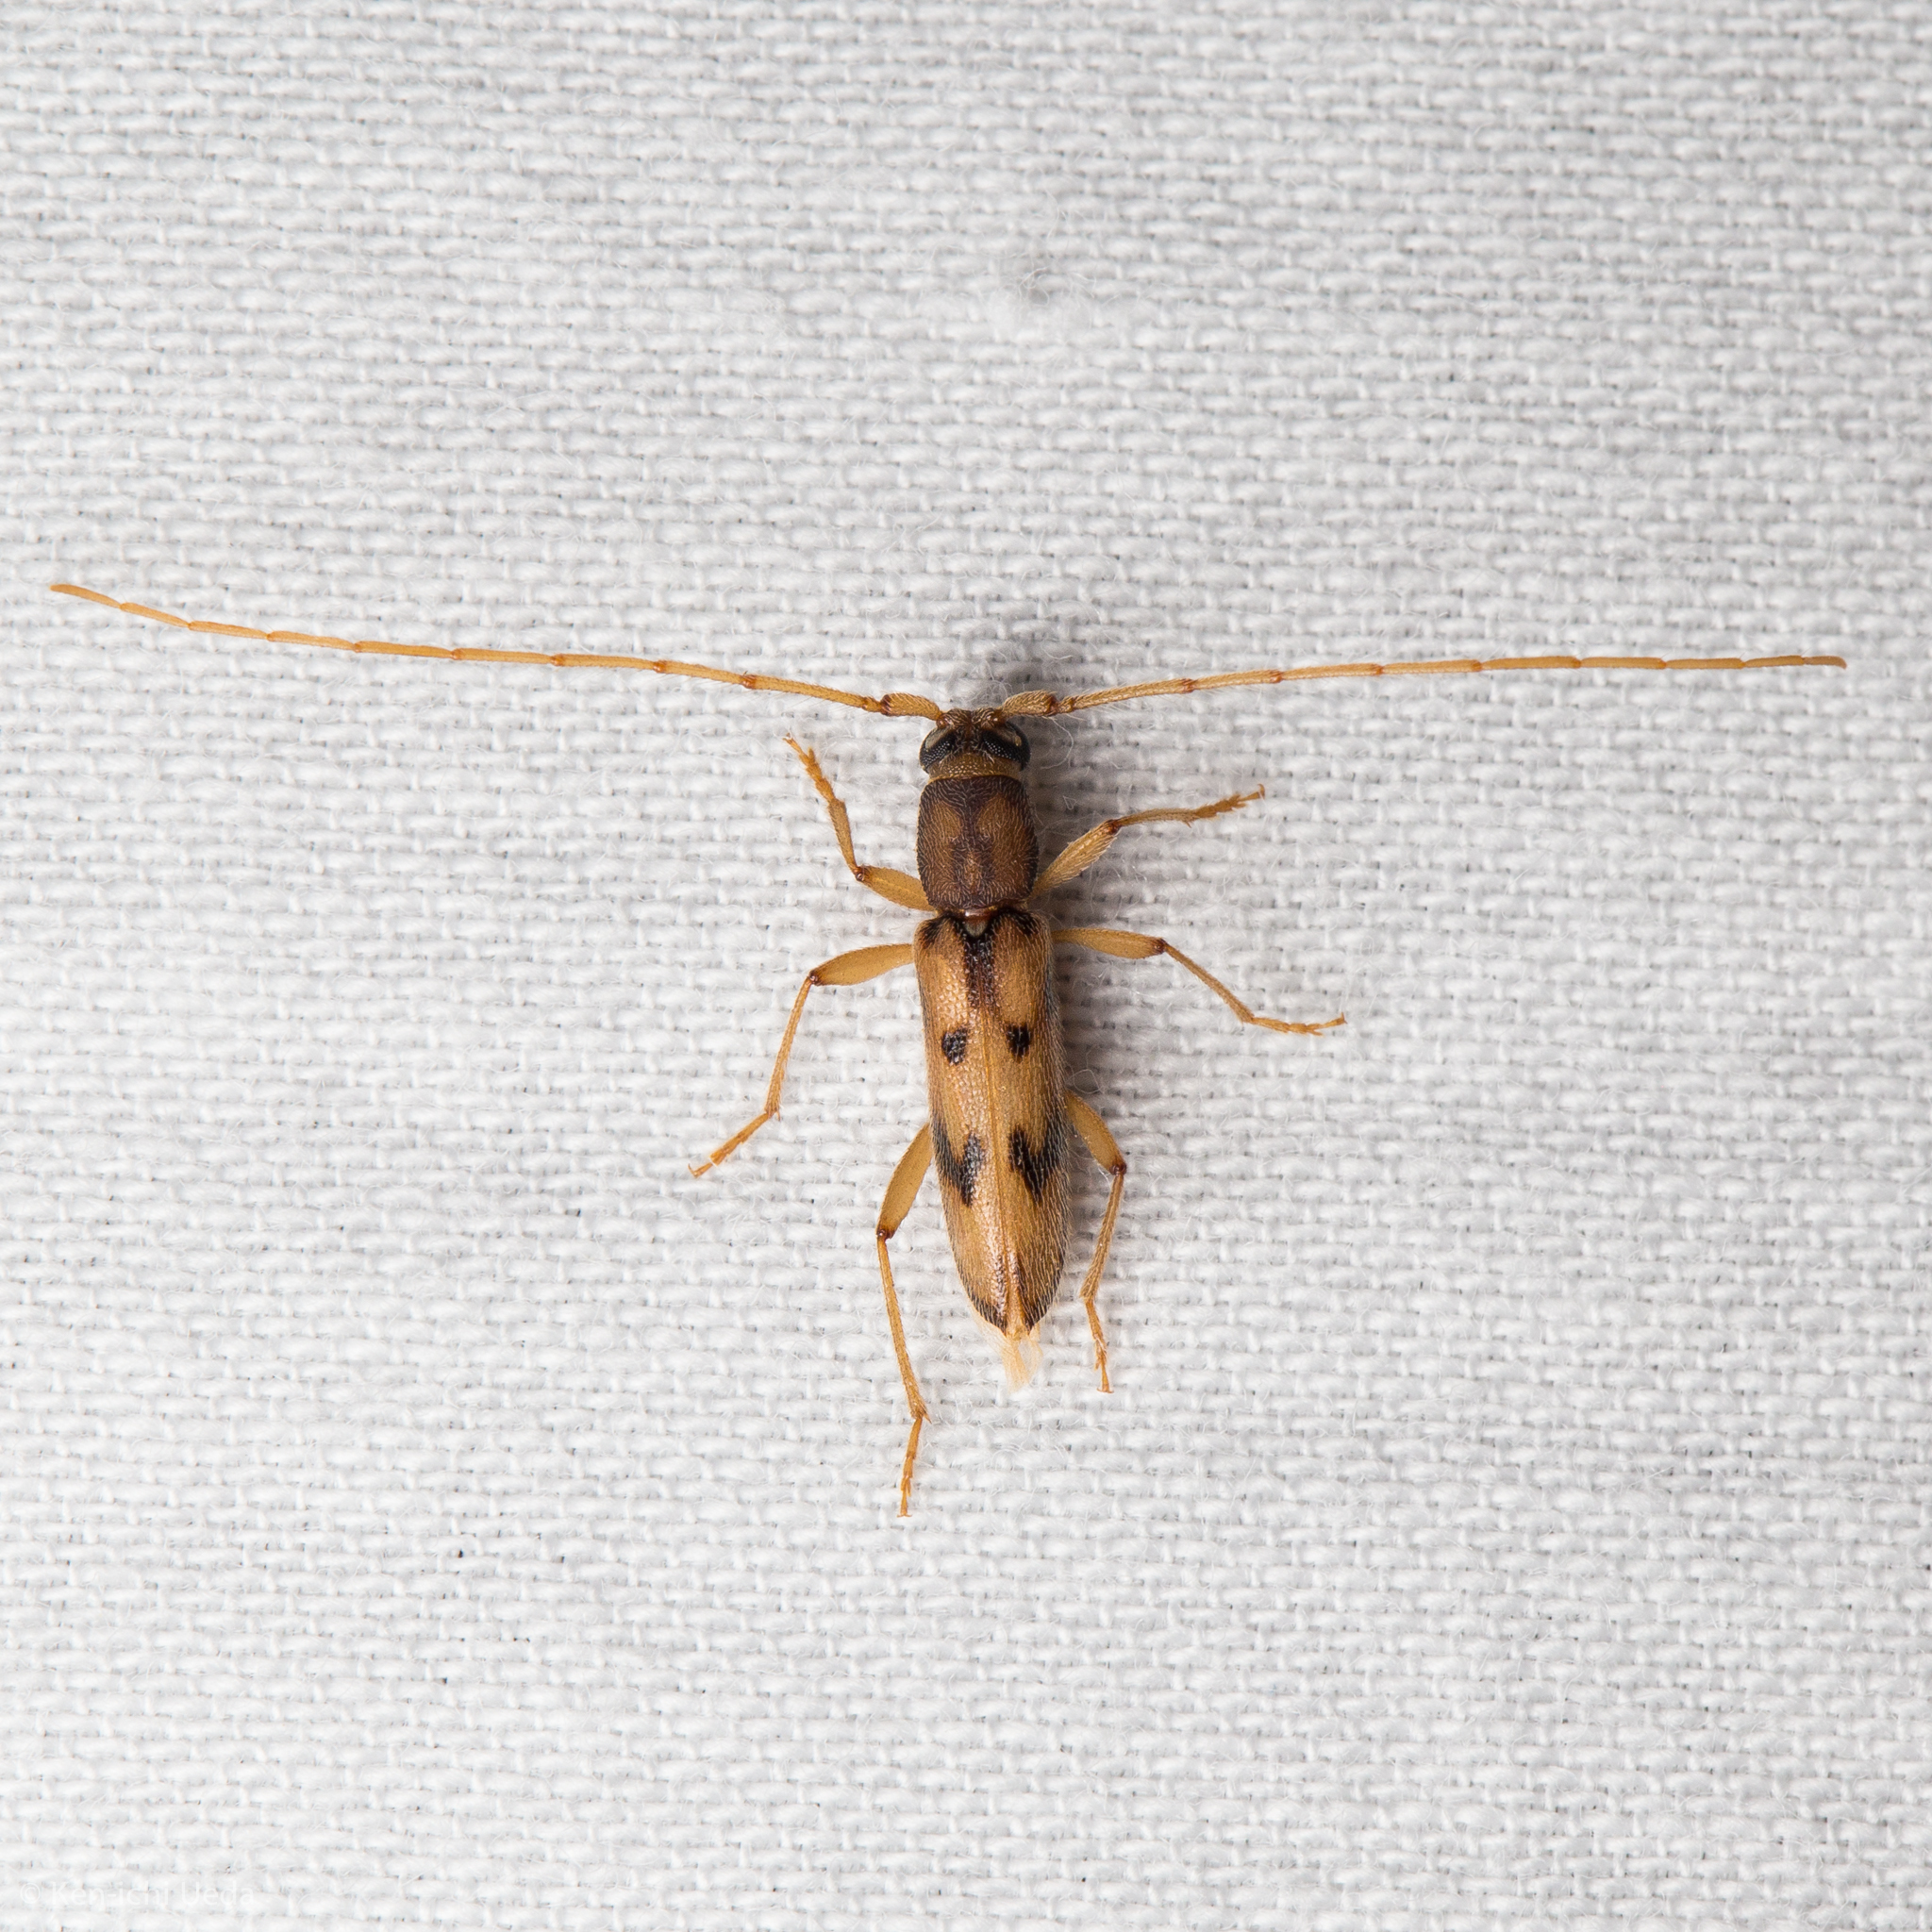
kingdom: Animalia
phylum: Arthropoda
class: Insecta
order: Coleoptera
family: Cerambycidae
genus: Achryson
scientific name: Achryson surinamum
